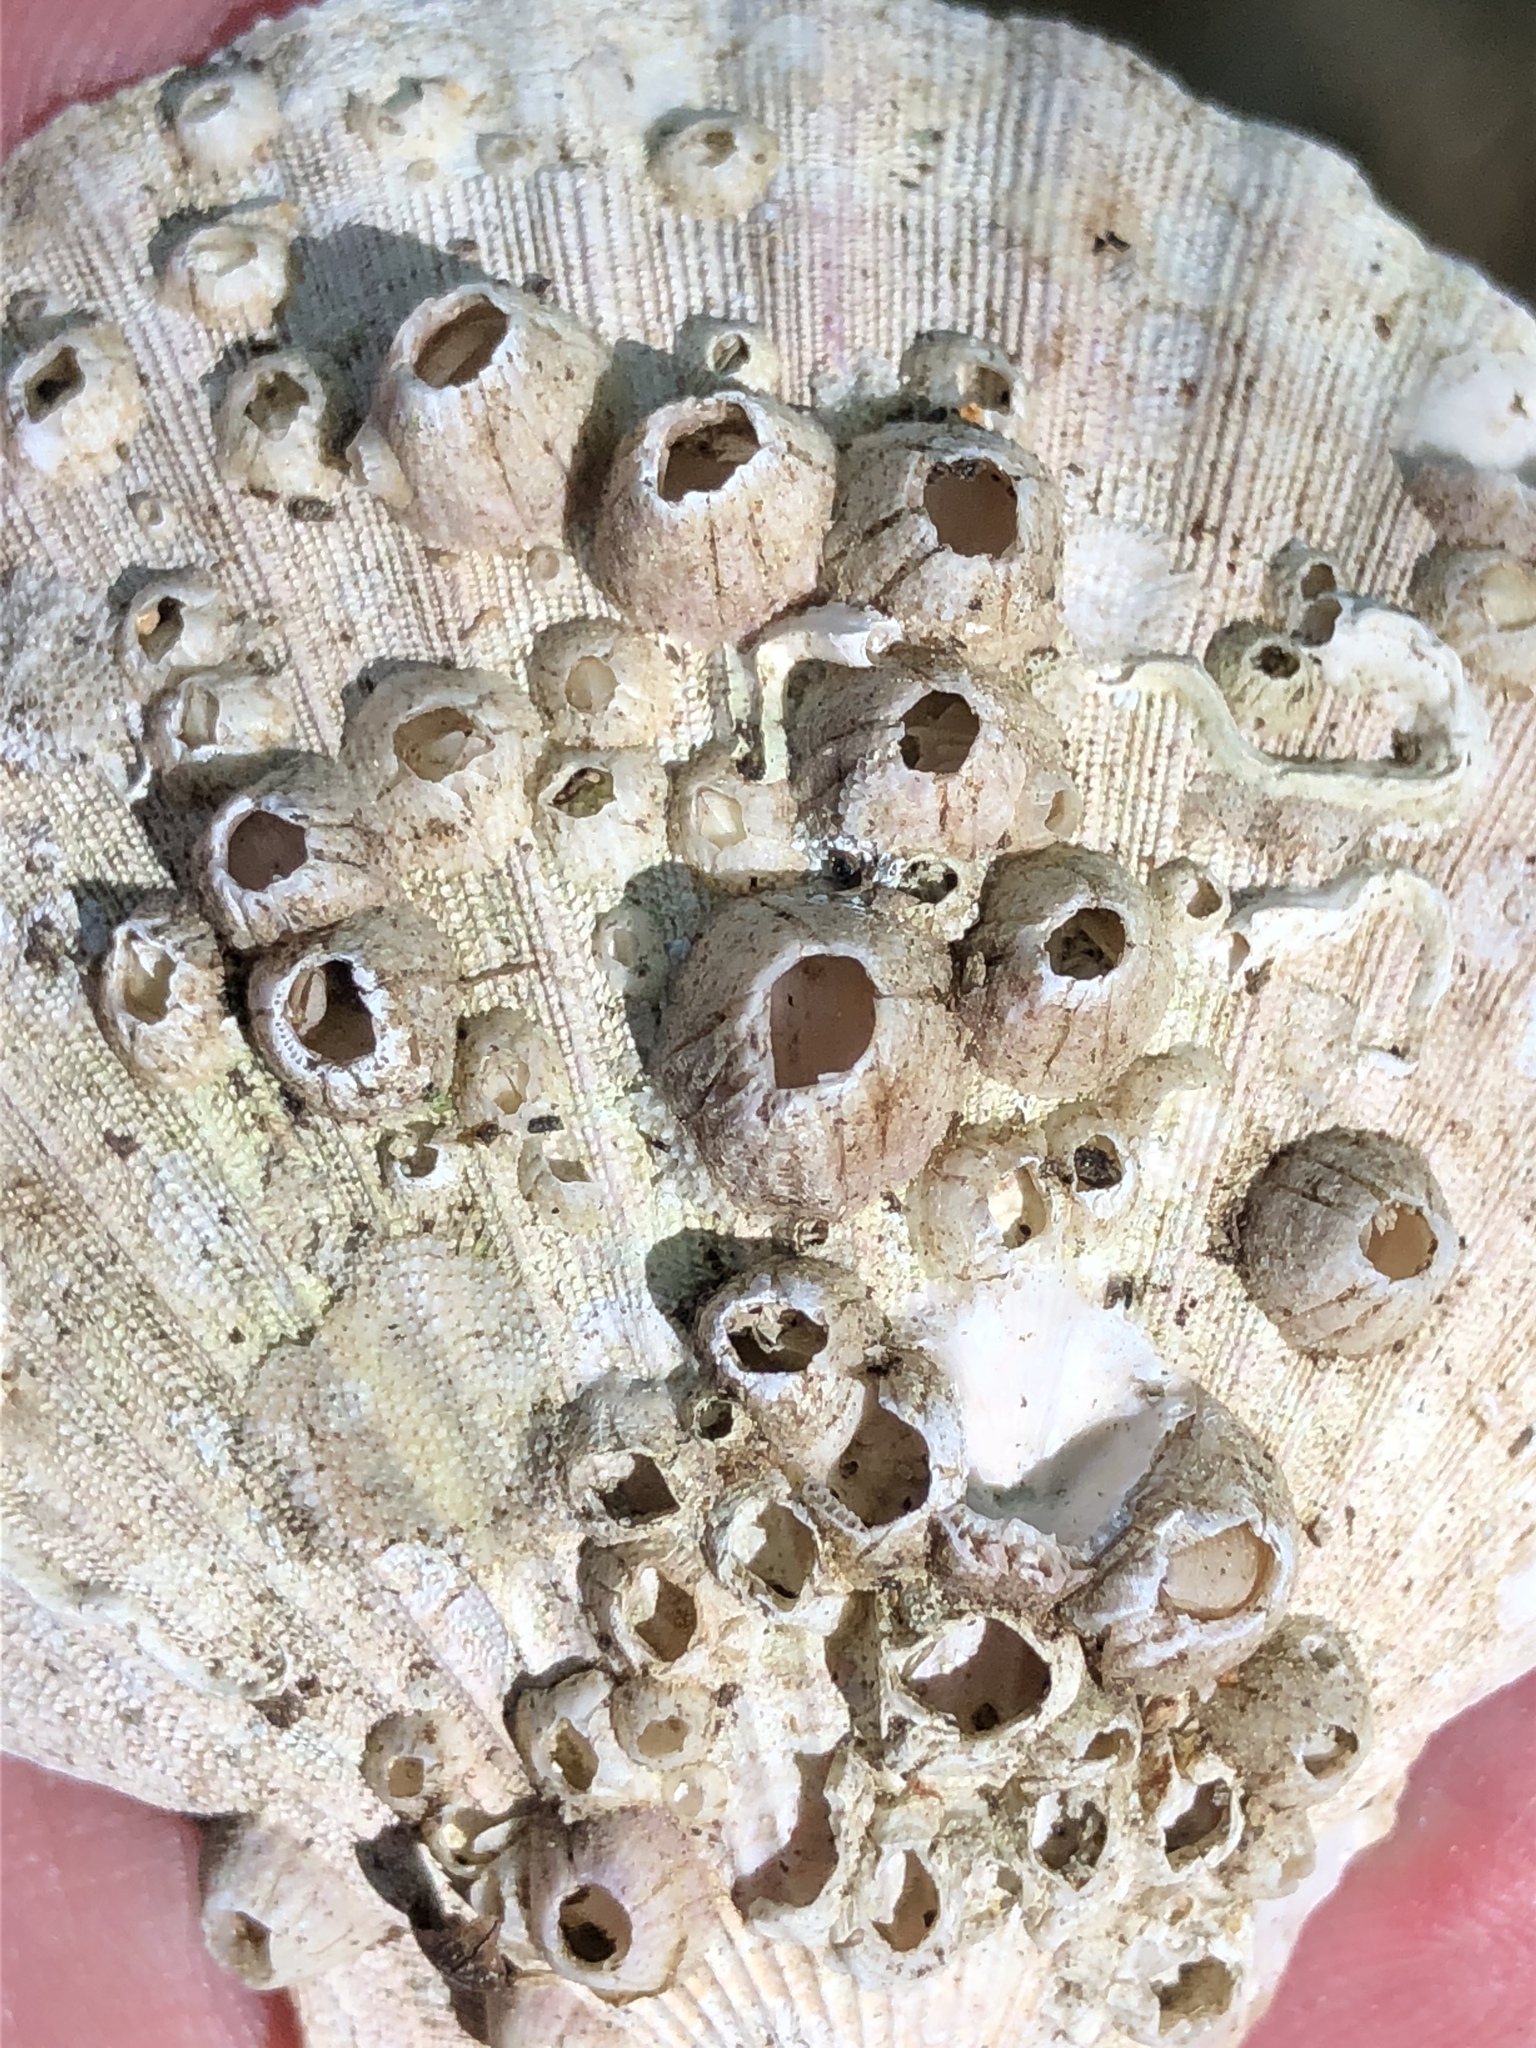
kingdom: Animalia
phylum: Arthropoda
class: Maxillopoda
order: Sessilia
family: Balanidae
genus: Balanus
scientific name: Balanus crenatus
